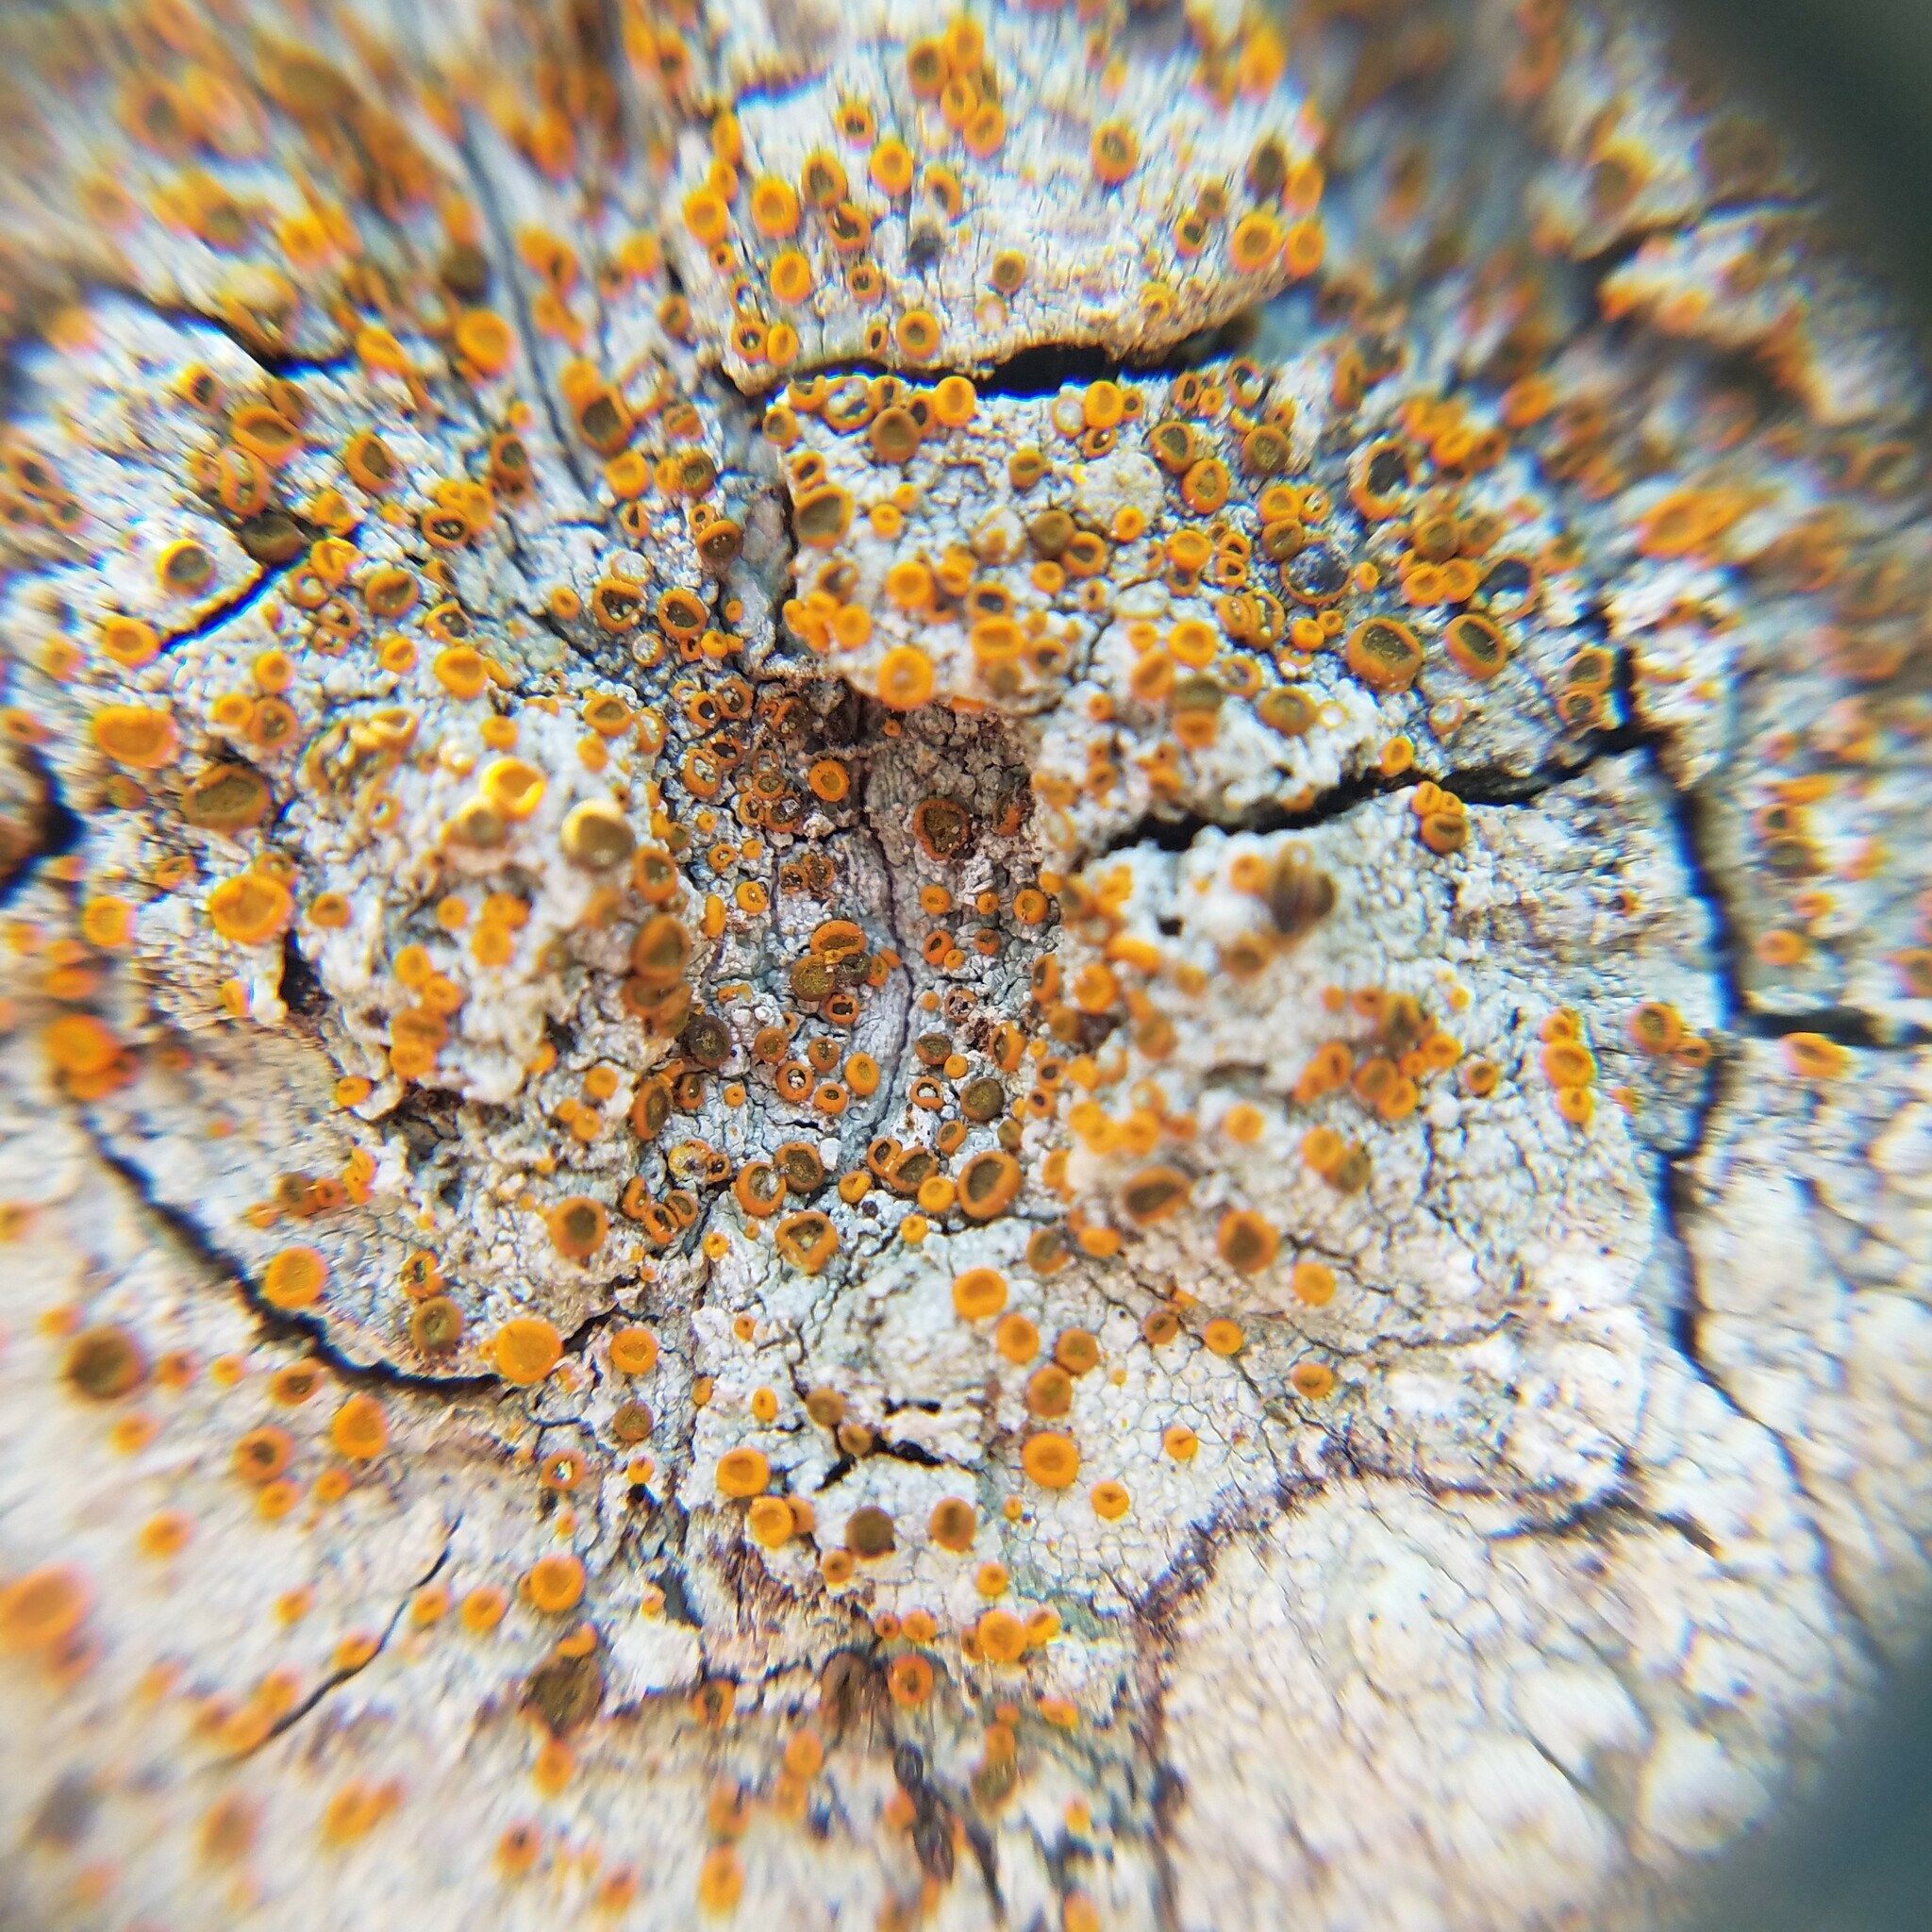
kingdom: Fungi
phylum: Ascomycota
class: Lecanoromycetes
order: Teloschistales
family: Brigantiaeaceae
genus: Brigantiaea
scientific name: Brigantiaea leucoxantha
